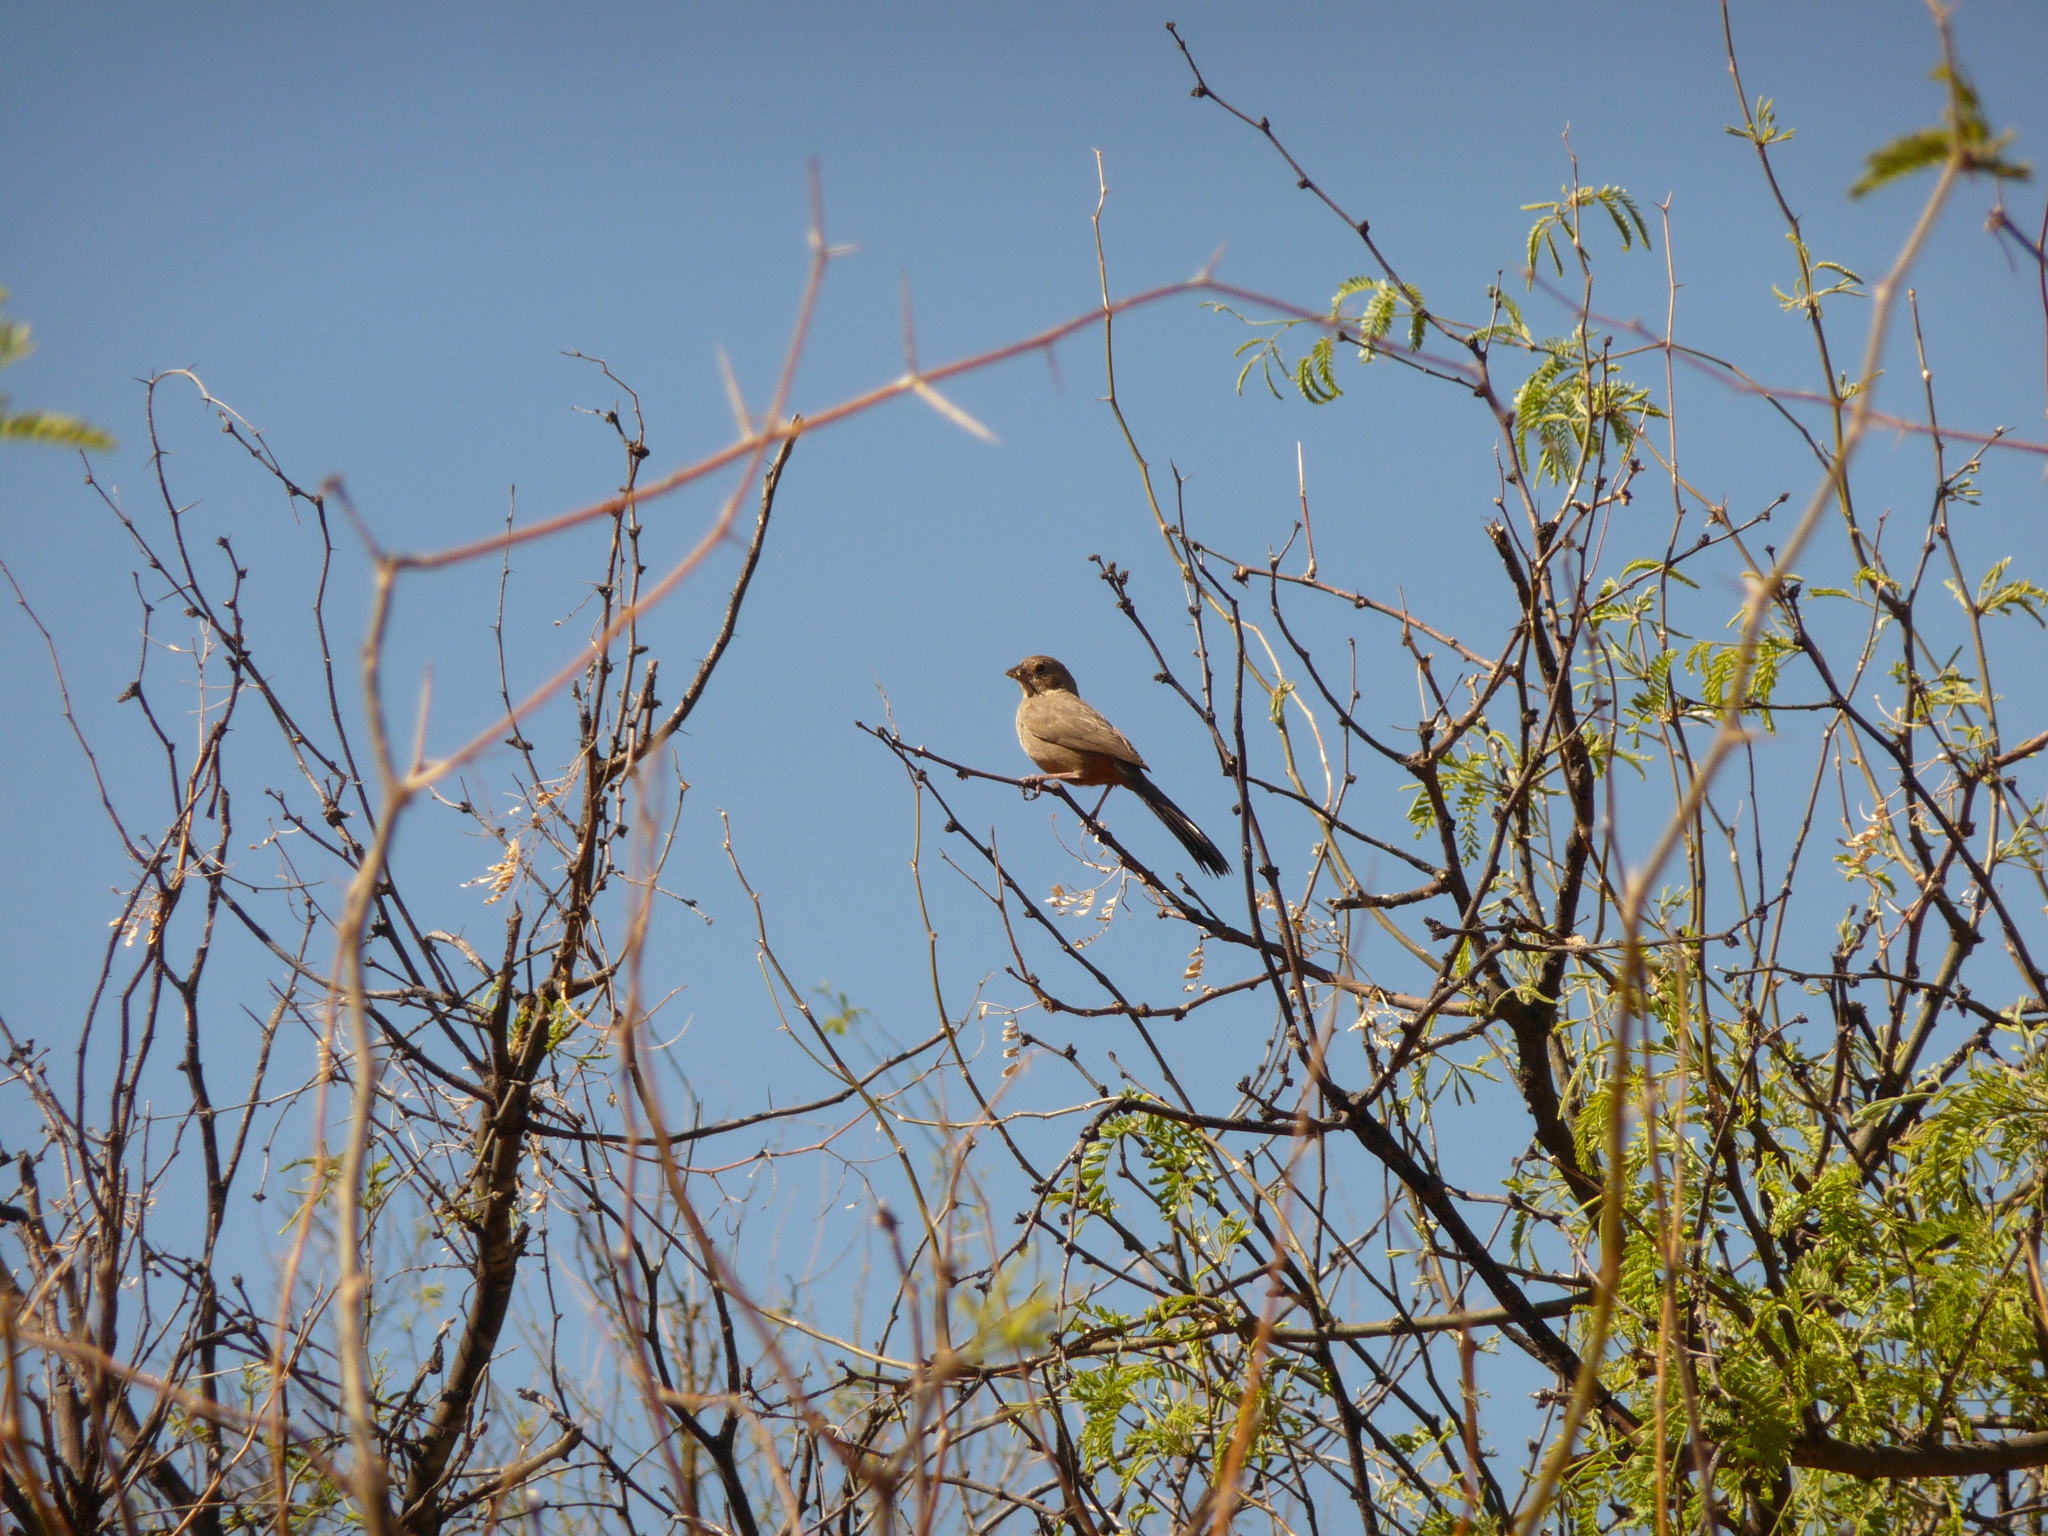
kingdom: Animalia
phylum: Chordata
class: Aves
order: Passeriformes
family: Passerellidae
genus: Melozone
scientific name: Melozone fusca
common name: Canyon towhee
